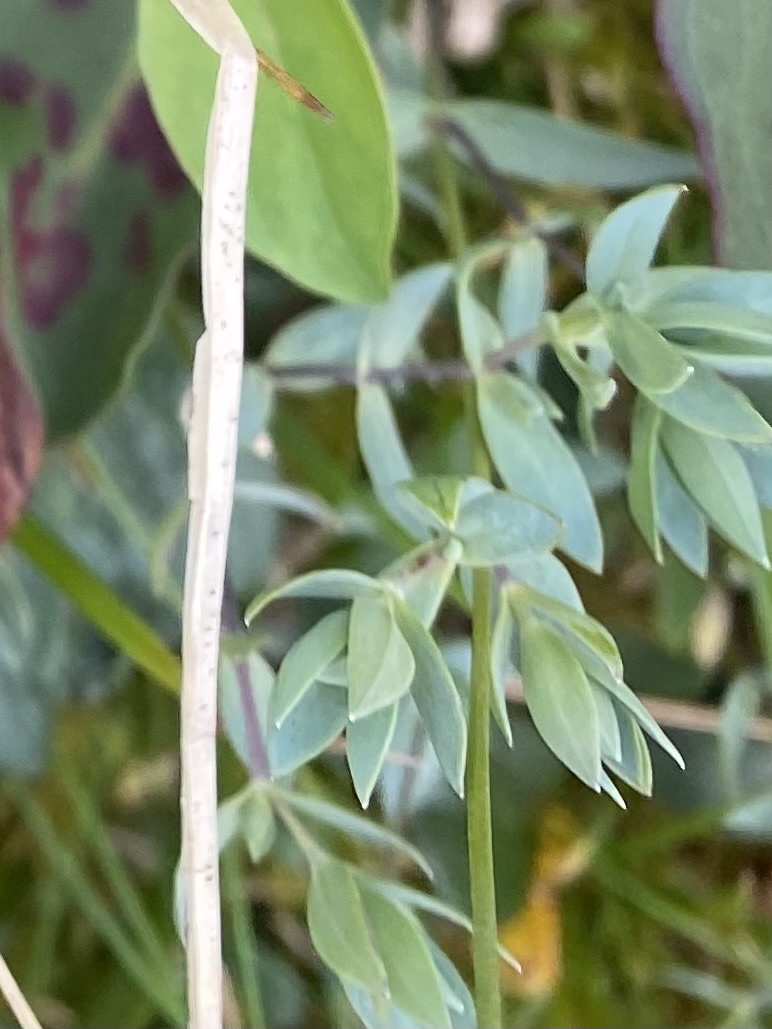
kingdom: Plantae
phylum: Tracheophyta
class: Magnoliopsida
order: Caryophyllales
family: Caryophyllaceae
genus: Stellaria
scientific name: Stellaria longipes
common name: Goldie's starwort
